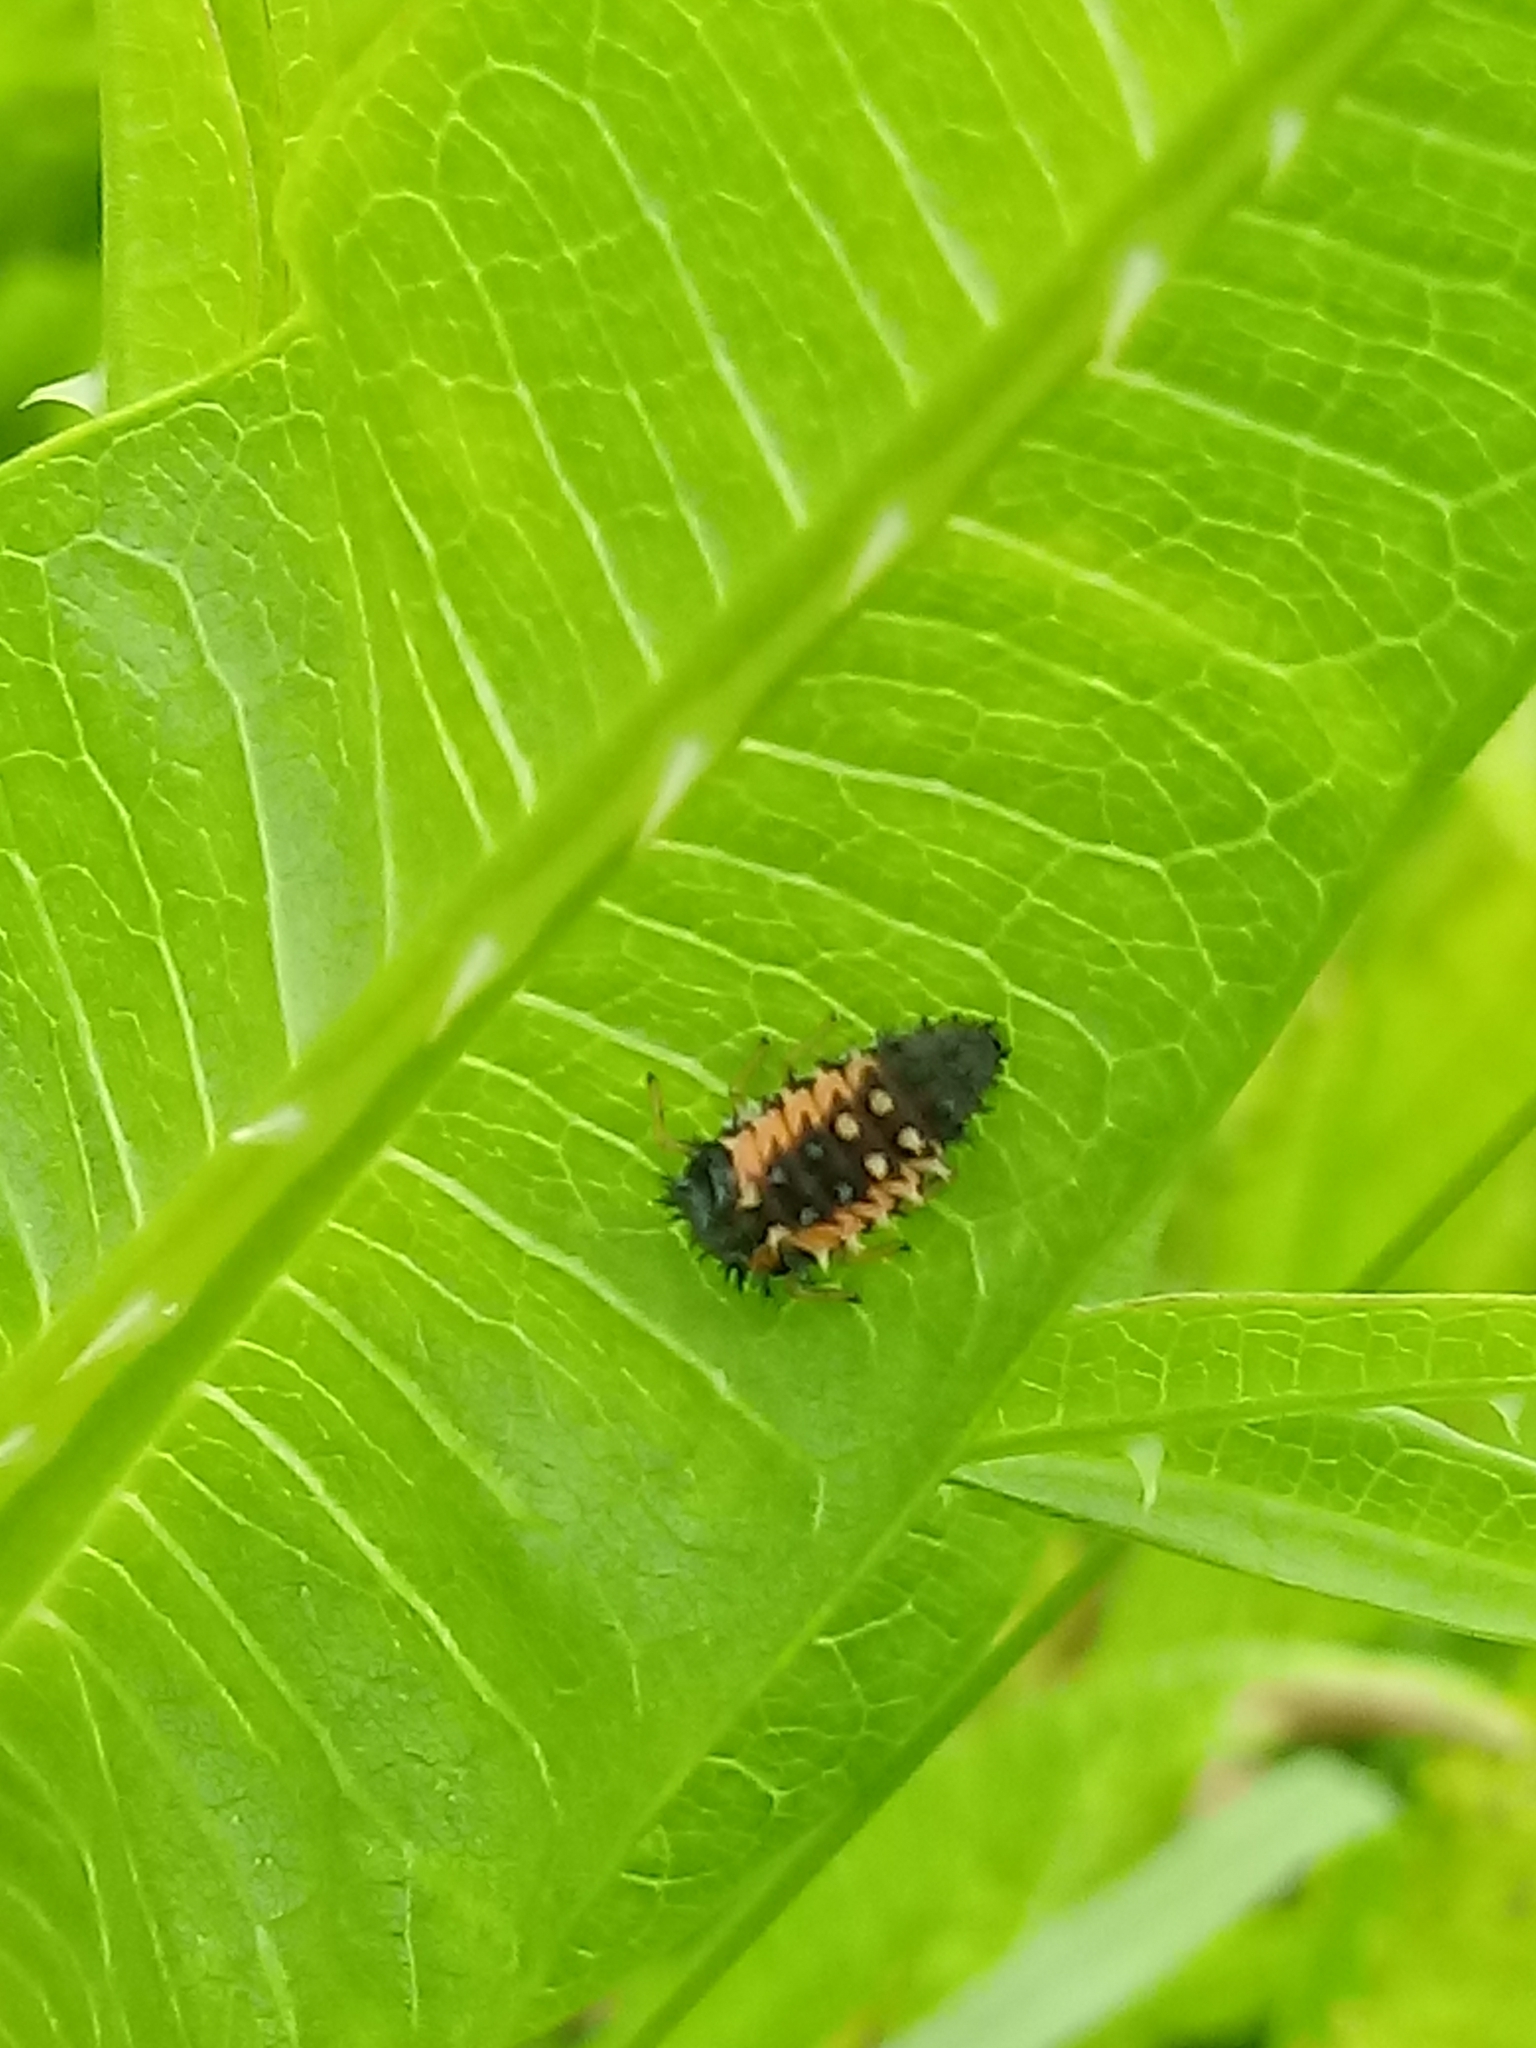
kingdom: Animalia
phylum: Arthropoda
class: Insecta
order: Coleoptera
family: Coccinellidae
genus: Harmonia
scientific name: Harmonia axyridis
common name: Harlequin ladybird
